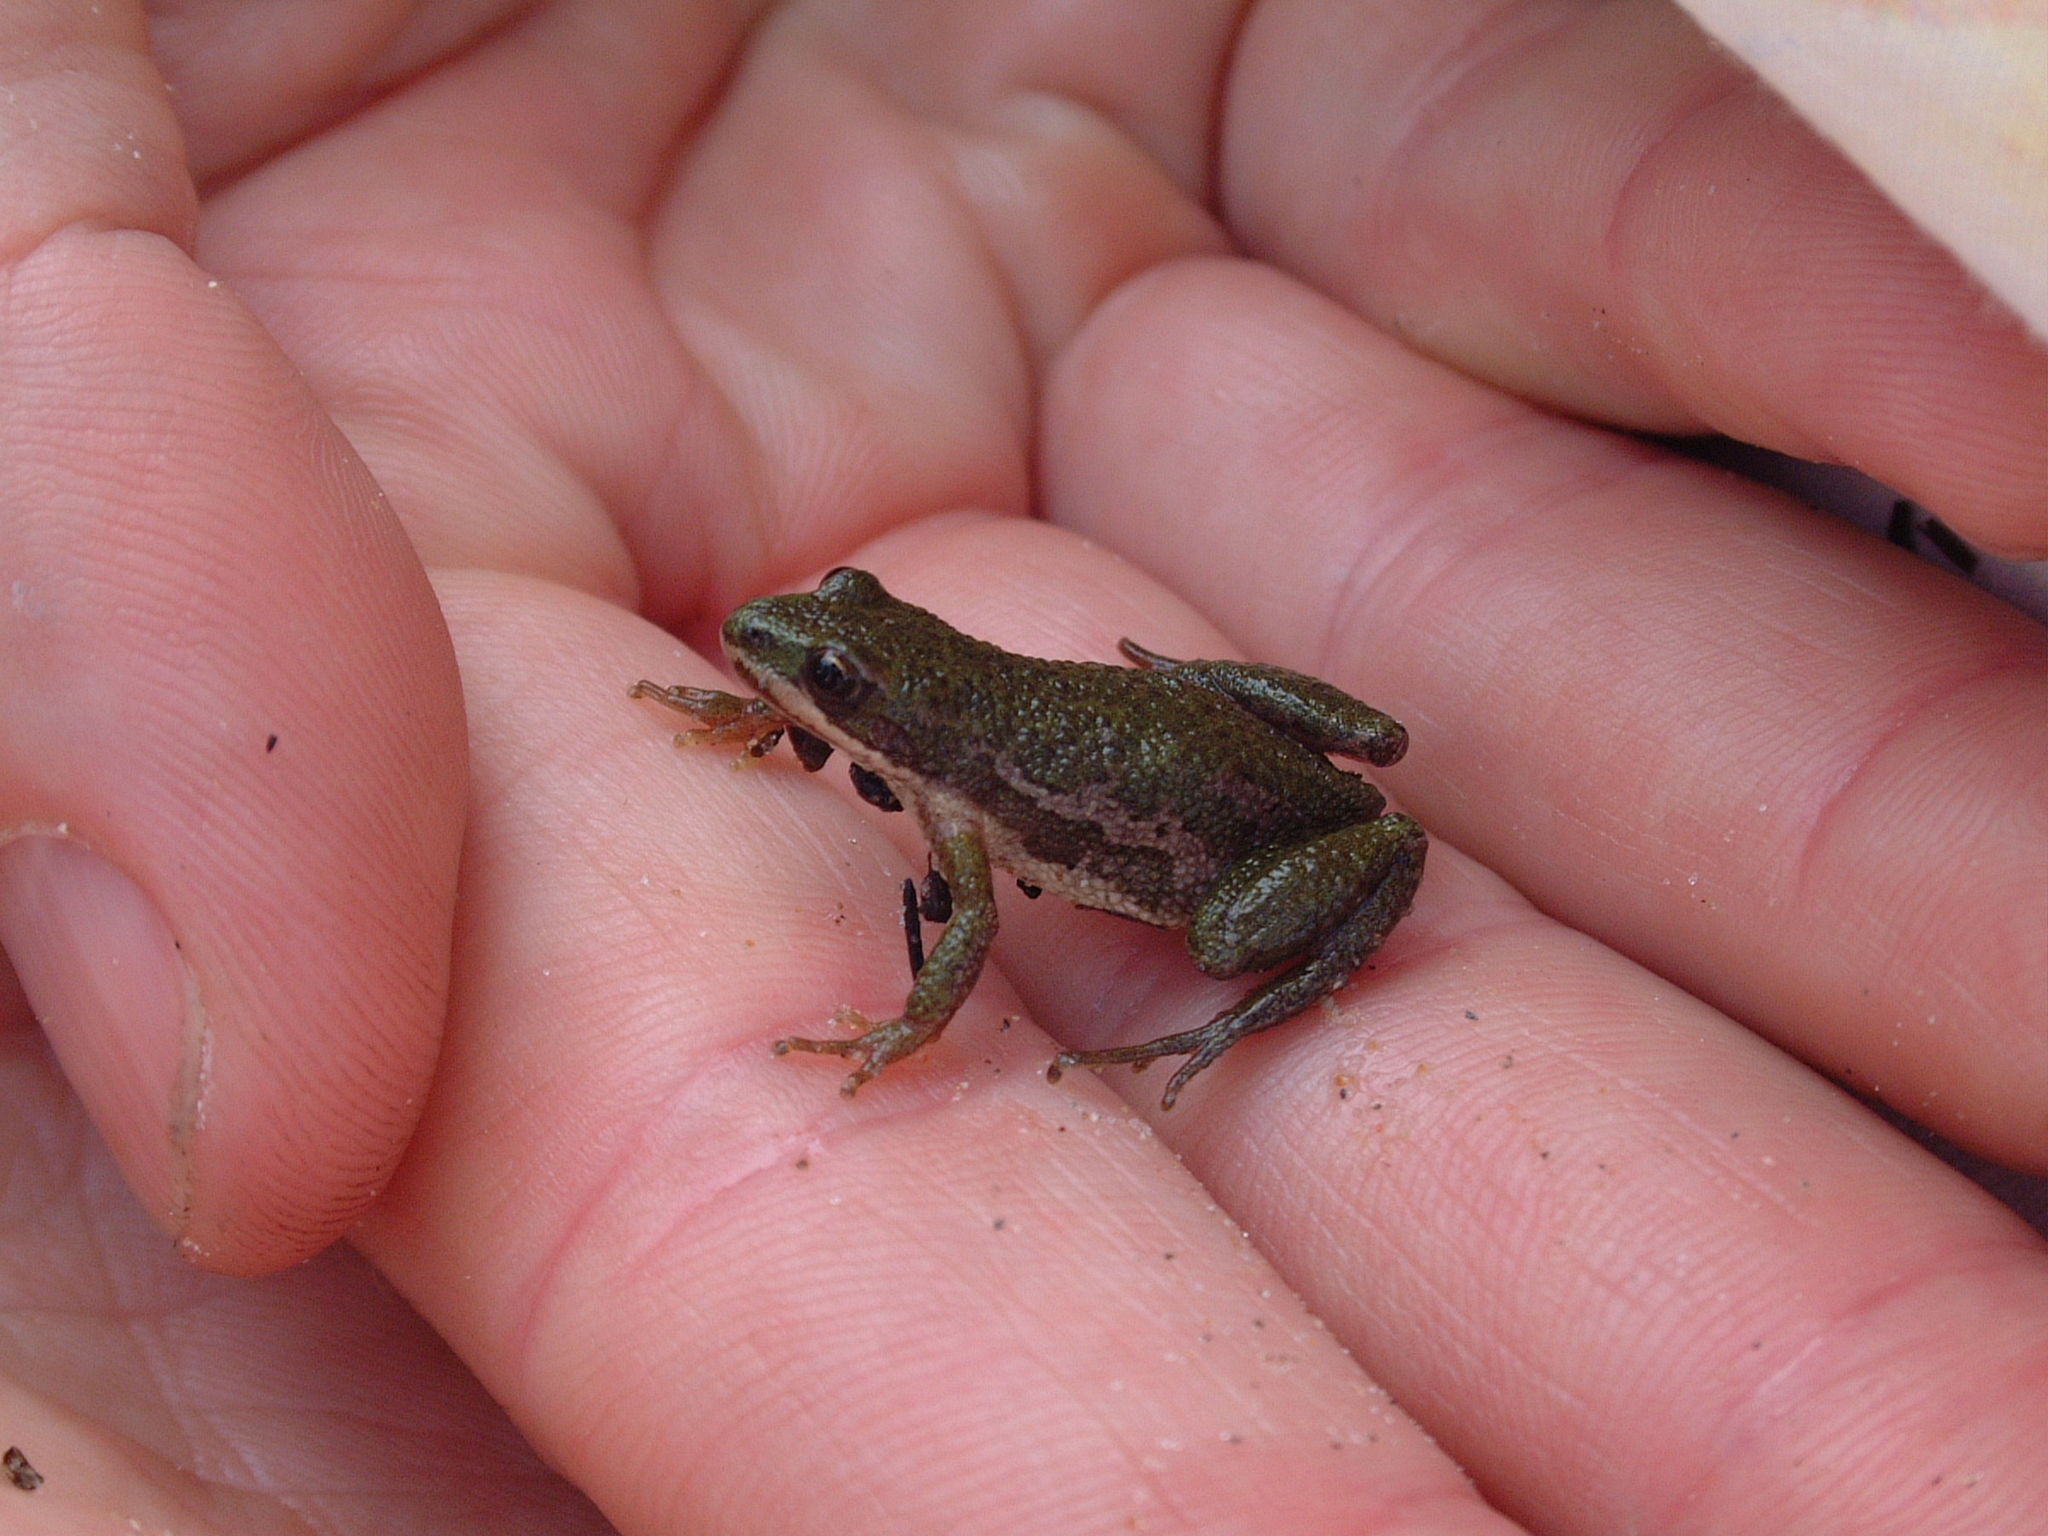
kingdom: Animalia
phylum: Chordata
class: Amphibia
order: Anura
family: Hylidae
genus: Pseudacris
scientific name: Pseudacris maculata
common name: Boreal chorus frog
